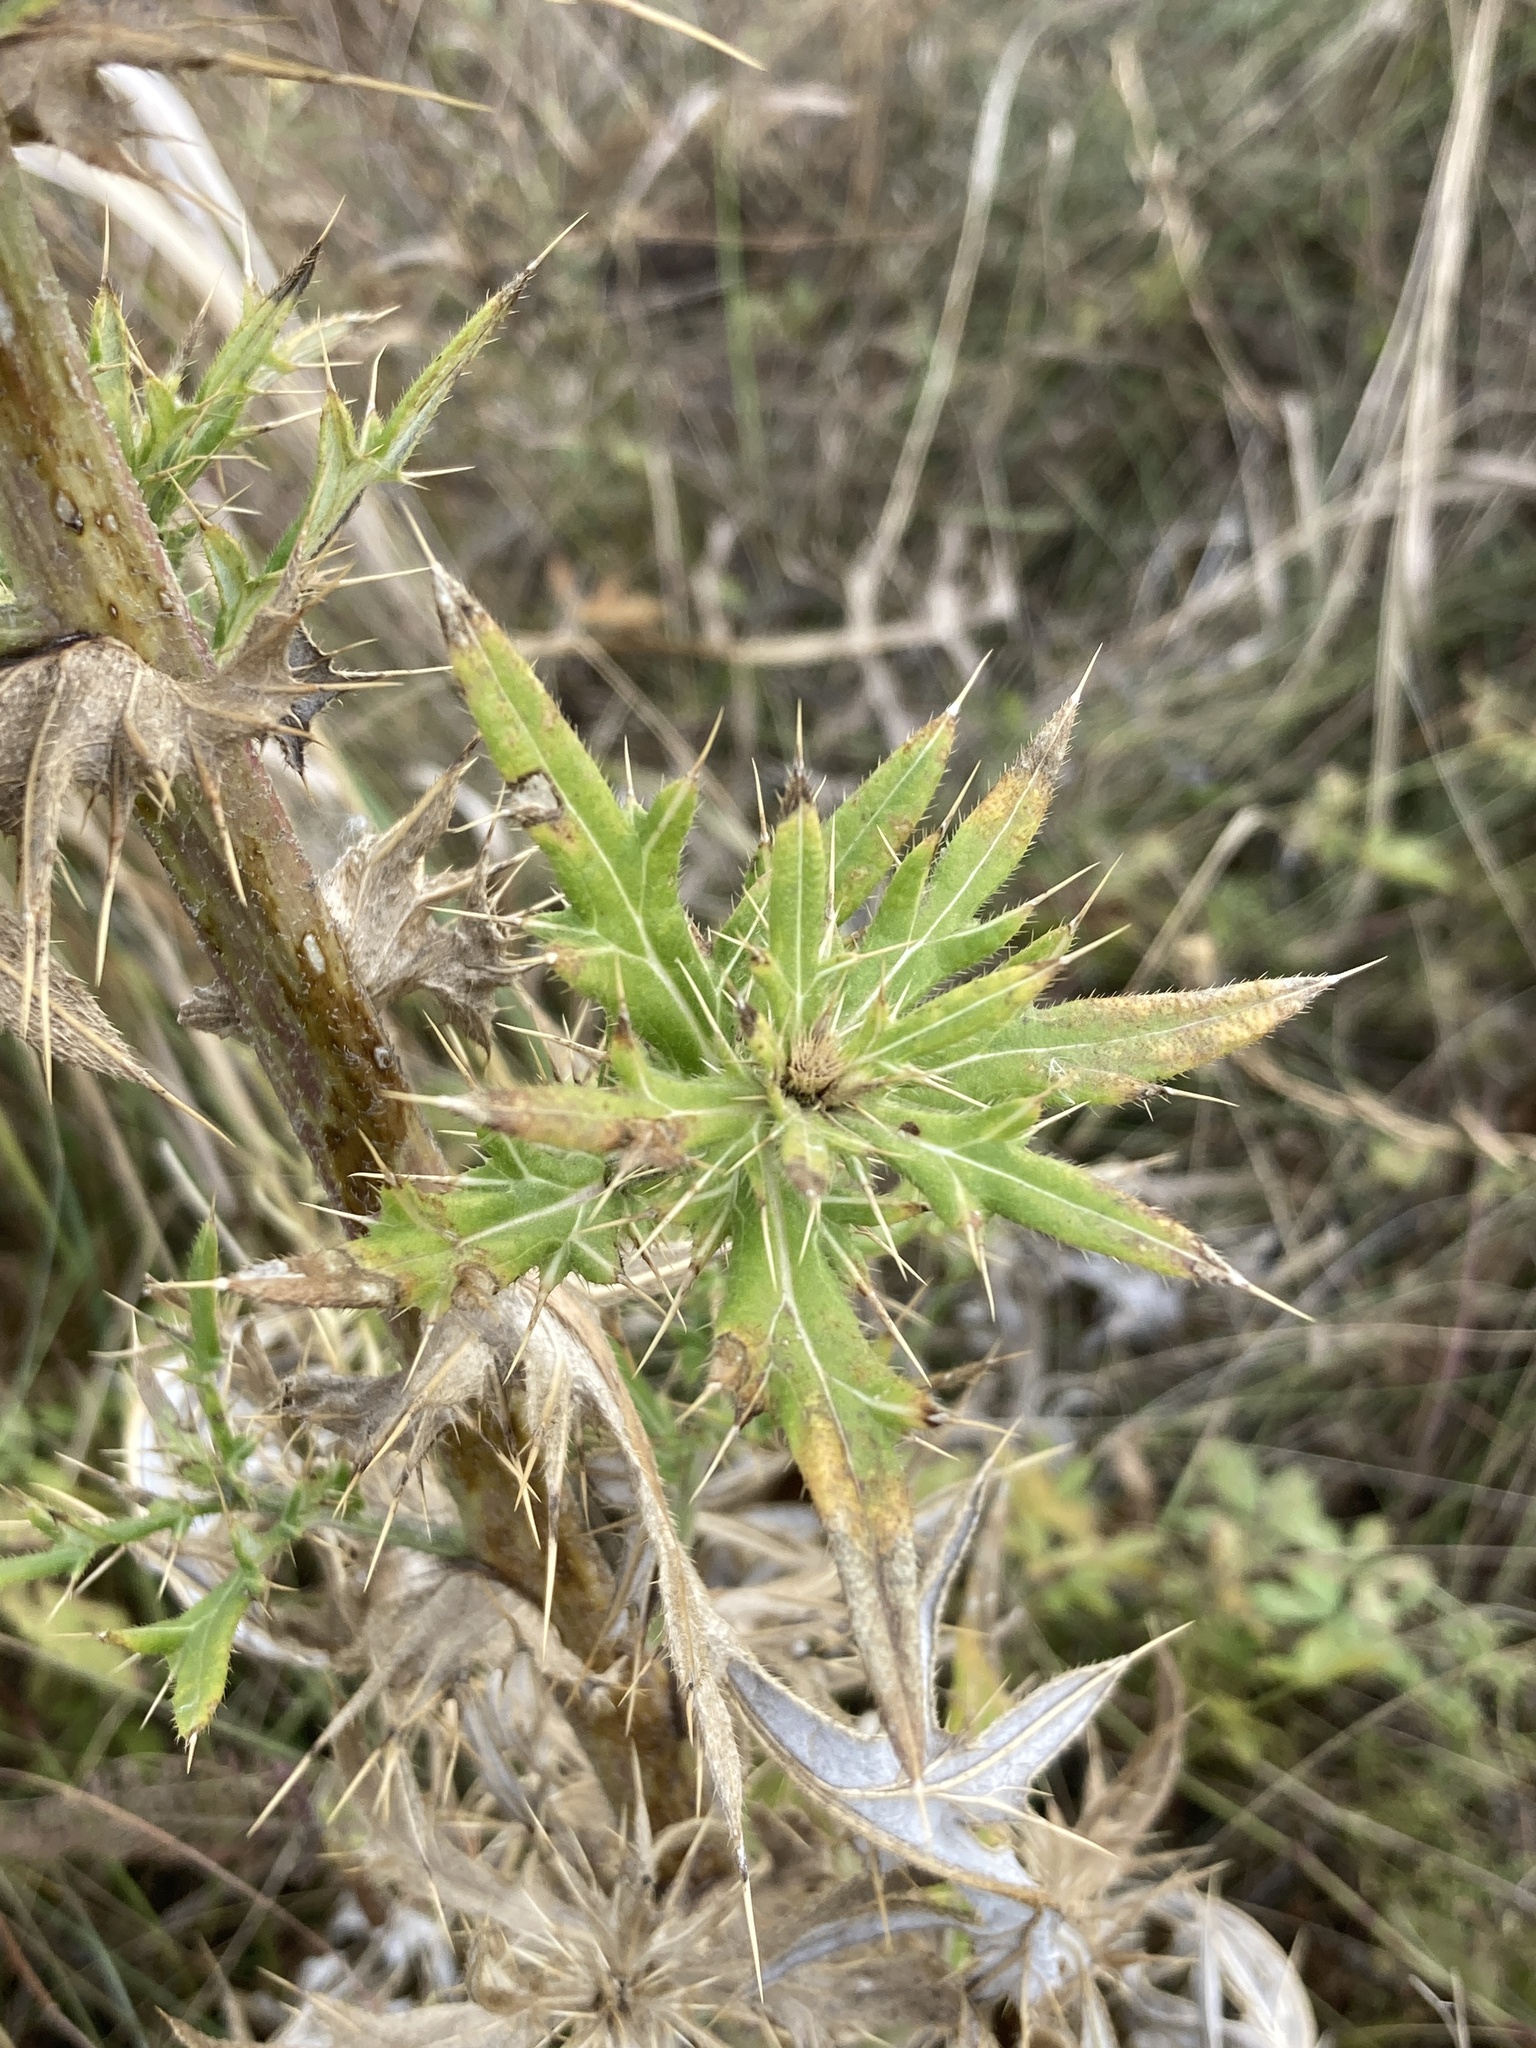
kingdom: Plantae
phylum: Tracheophyta
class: Magnoliopsida
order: Asterales
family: Asteraceae
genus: Cirsium
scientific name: Cirsium serrulatum
